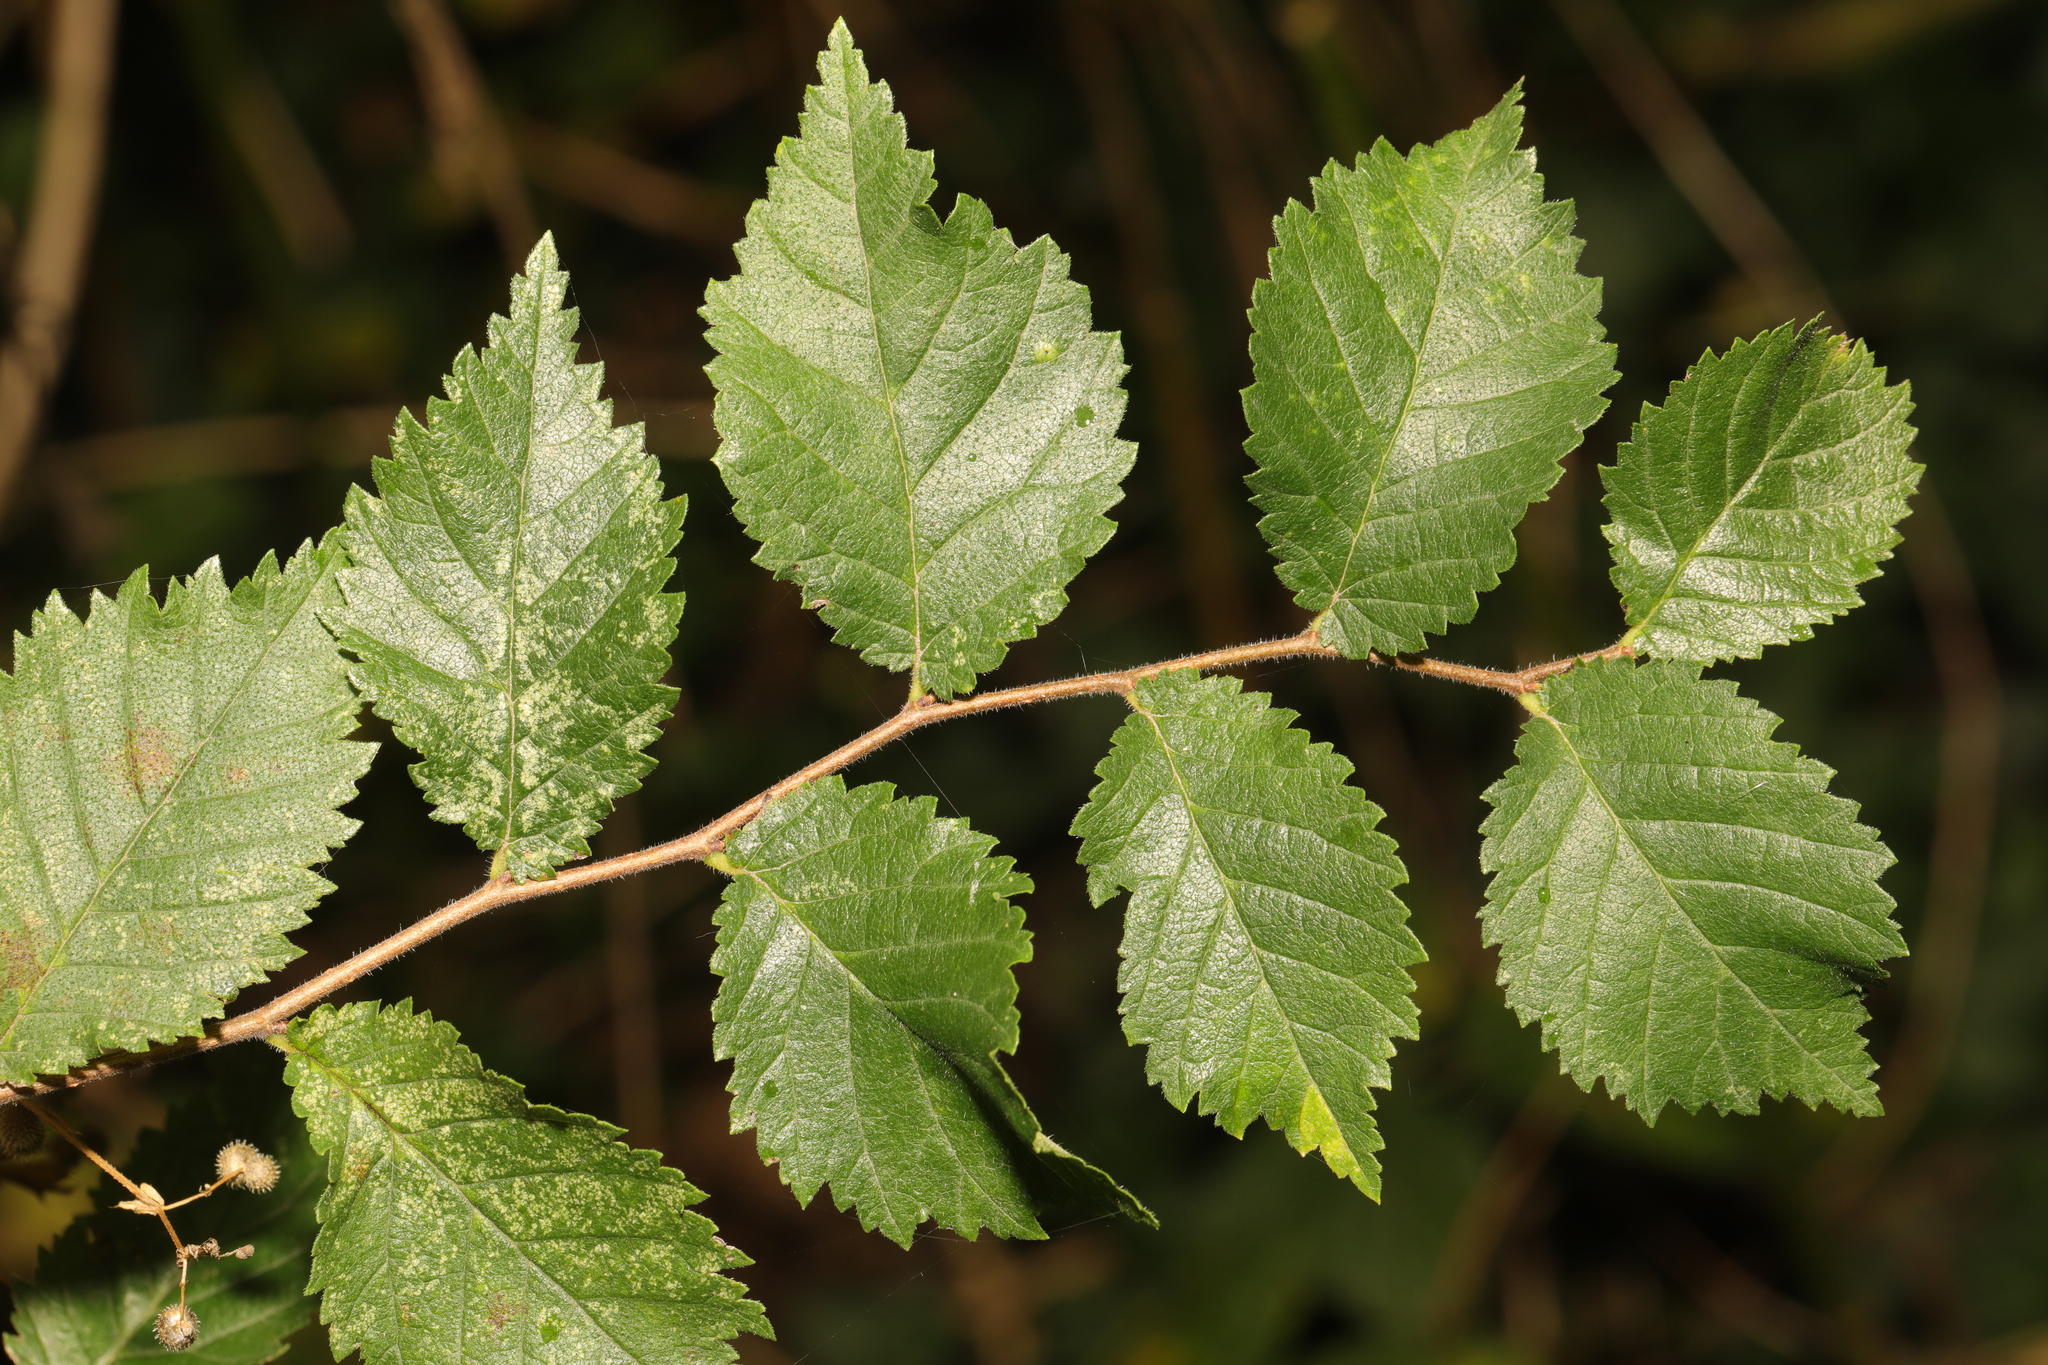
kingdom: Plantae
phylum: Tracheophyta
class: Magnoliopsida
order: Rosales
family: Ulmaceae
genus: Ulmus
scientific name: Ulmus minor
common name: Small-leaved elm
